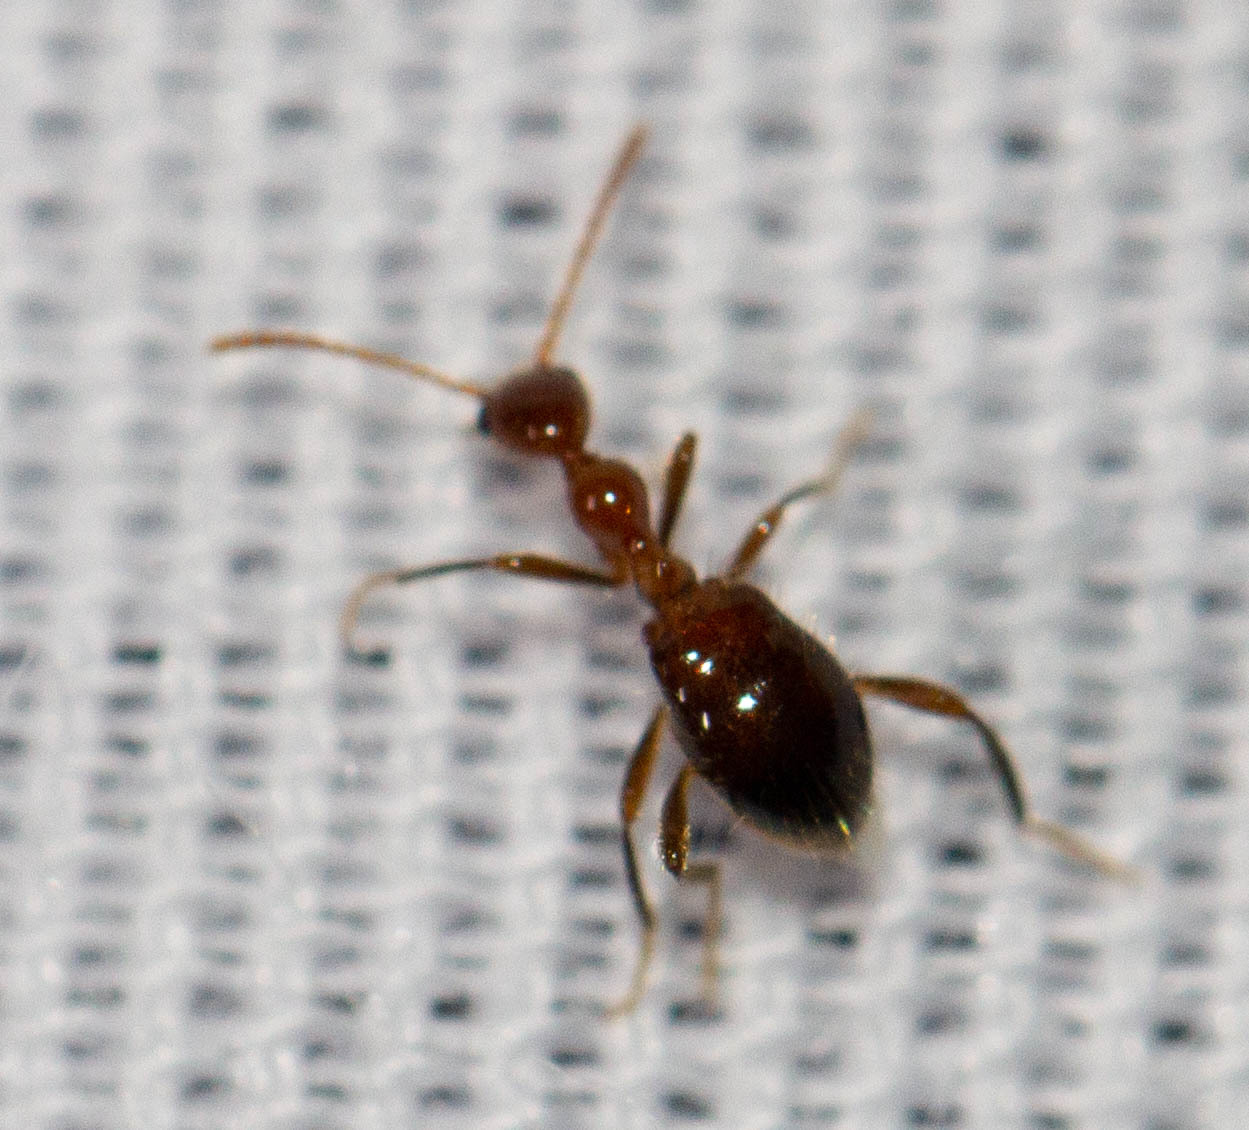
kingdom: Animalia
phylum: Arthropoda
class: Insecta
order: Coleoptera
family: Anthicidae
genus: Acanthinus
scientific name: Acanthinus
